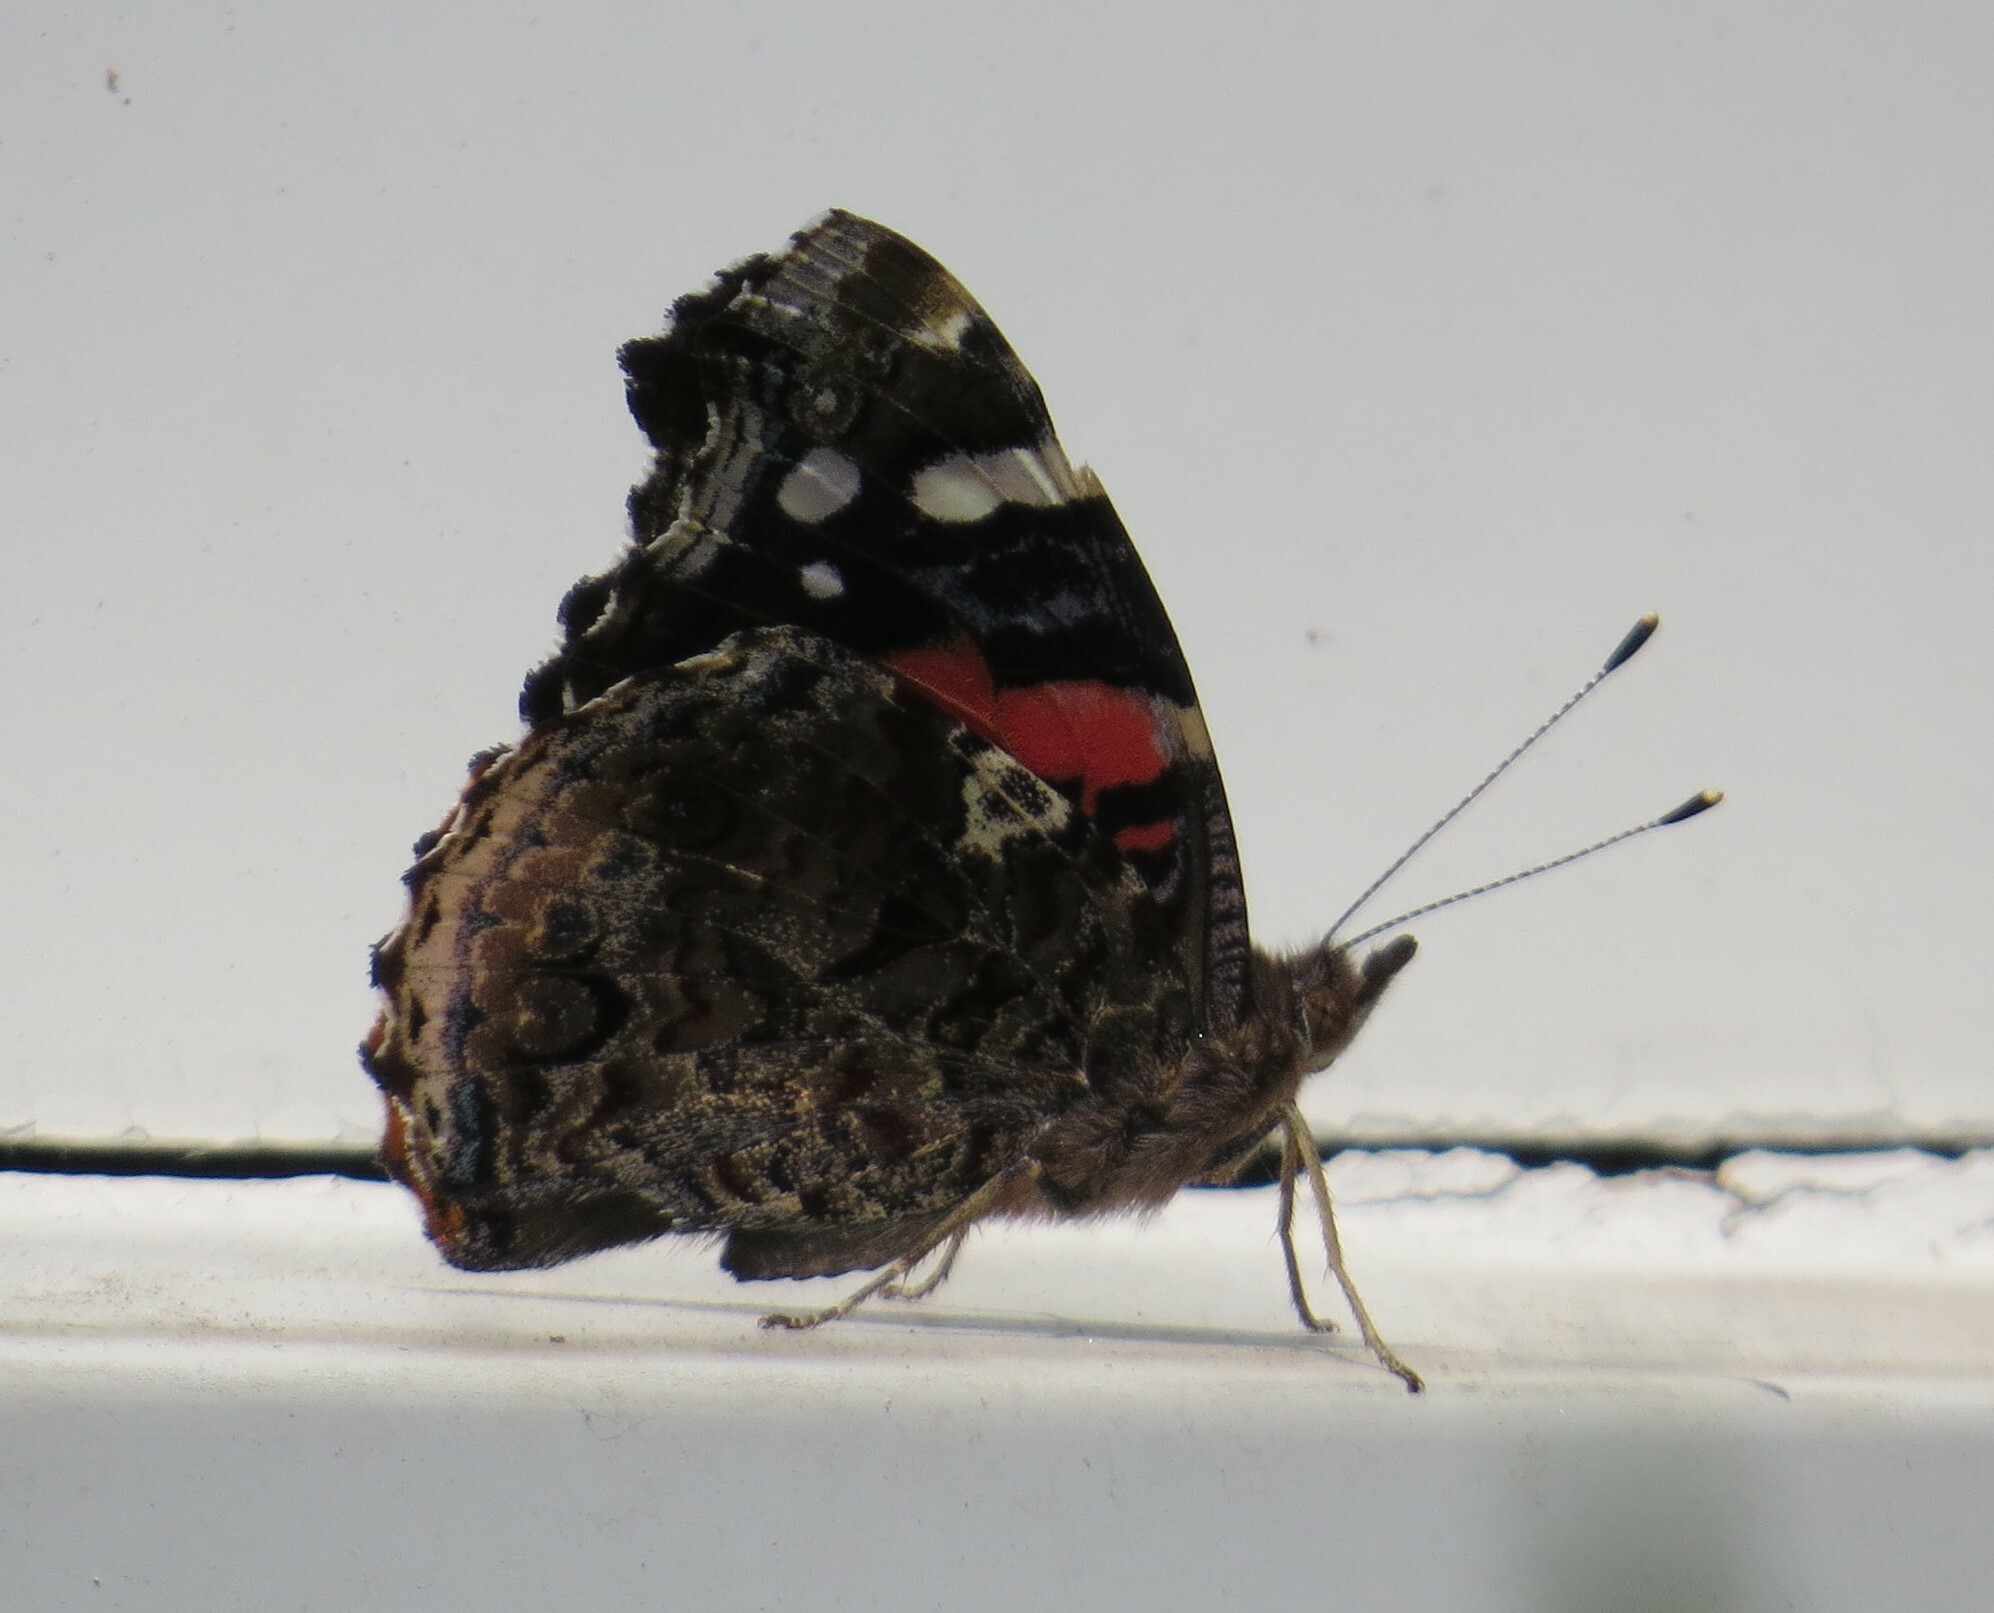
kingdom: Animalia
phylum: Arthropoda
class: Insecta
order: Lepidoptera
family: Nymphalidae
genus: Vanessa
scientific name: Vanessa atalanta
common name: Red admiral
